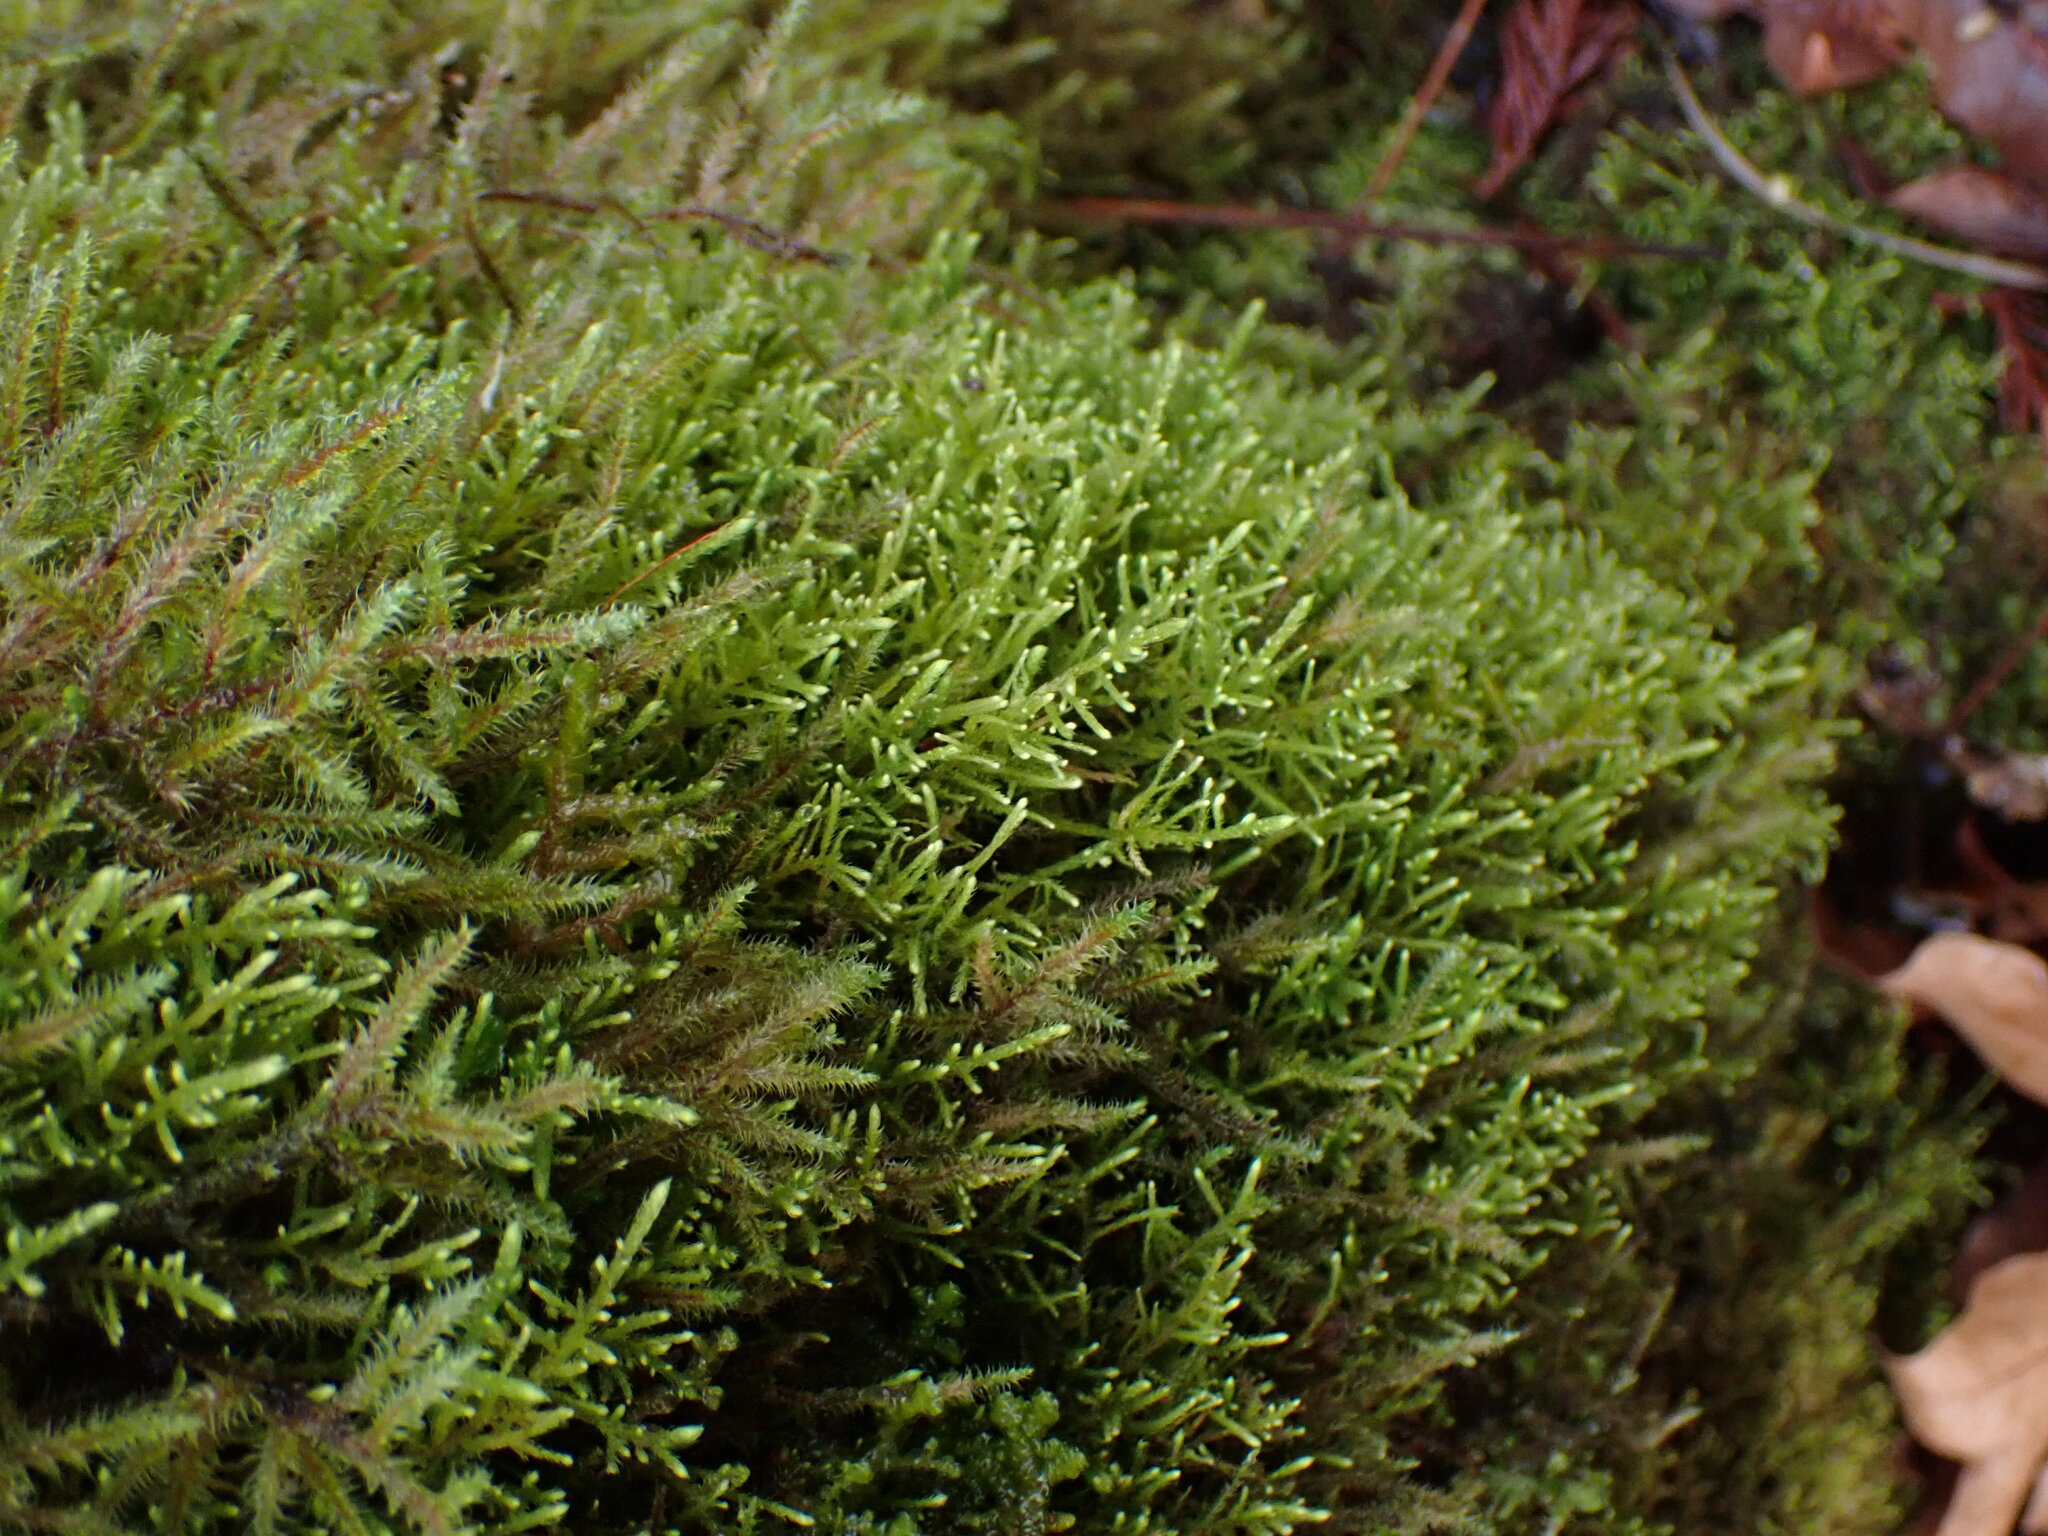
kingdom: Plantae
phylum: Bryophyta
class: Bryopsida
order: Hypnales
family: Brachytheciaceae
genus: Claopodium
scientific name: Claopodium crispifolium
